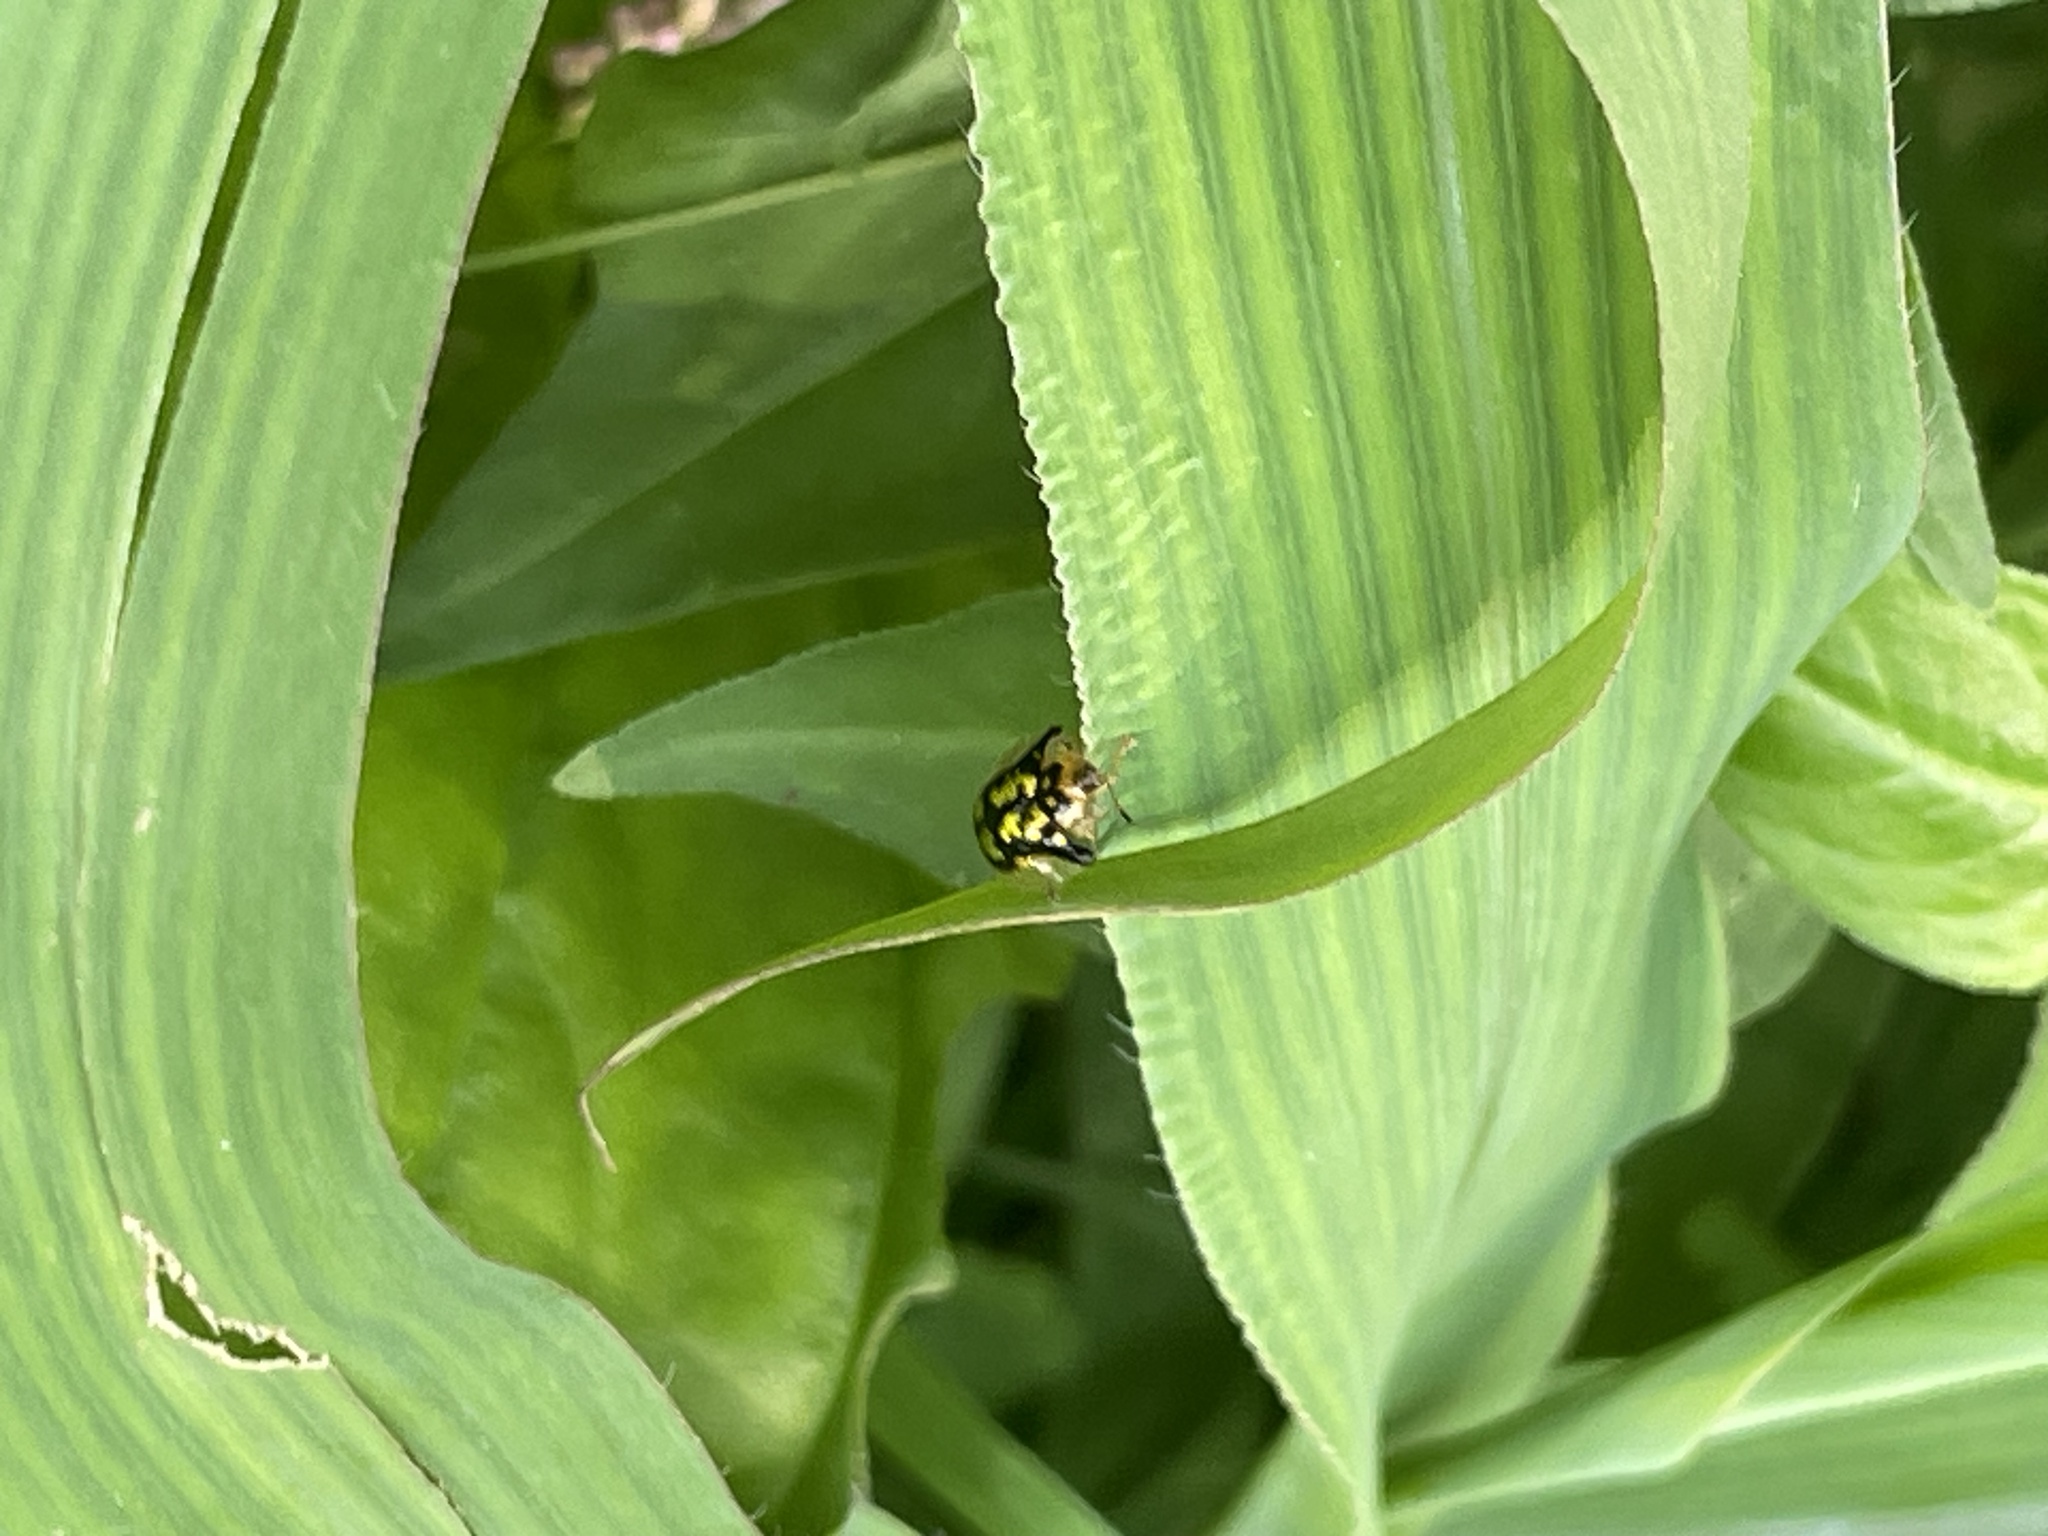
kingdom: Animalia
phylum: Arthropoda
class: Insecta
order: Coleoptera
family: Chrysomelidae
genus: Deloyala
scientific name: Deloyala guttata
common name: Mottled tortoise beetle
